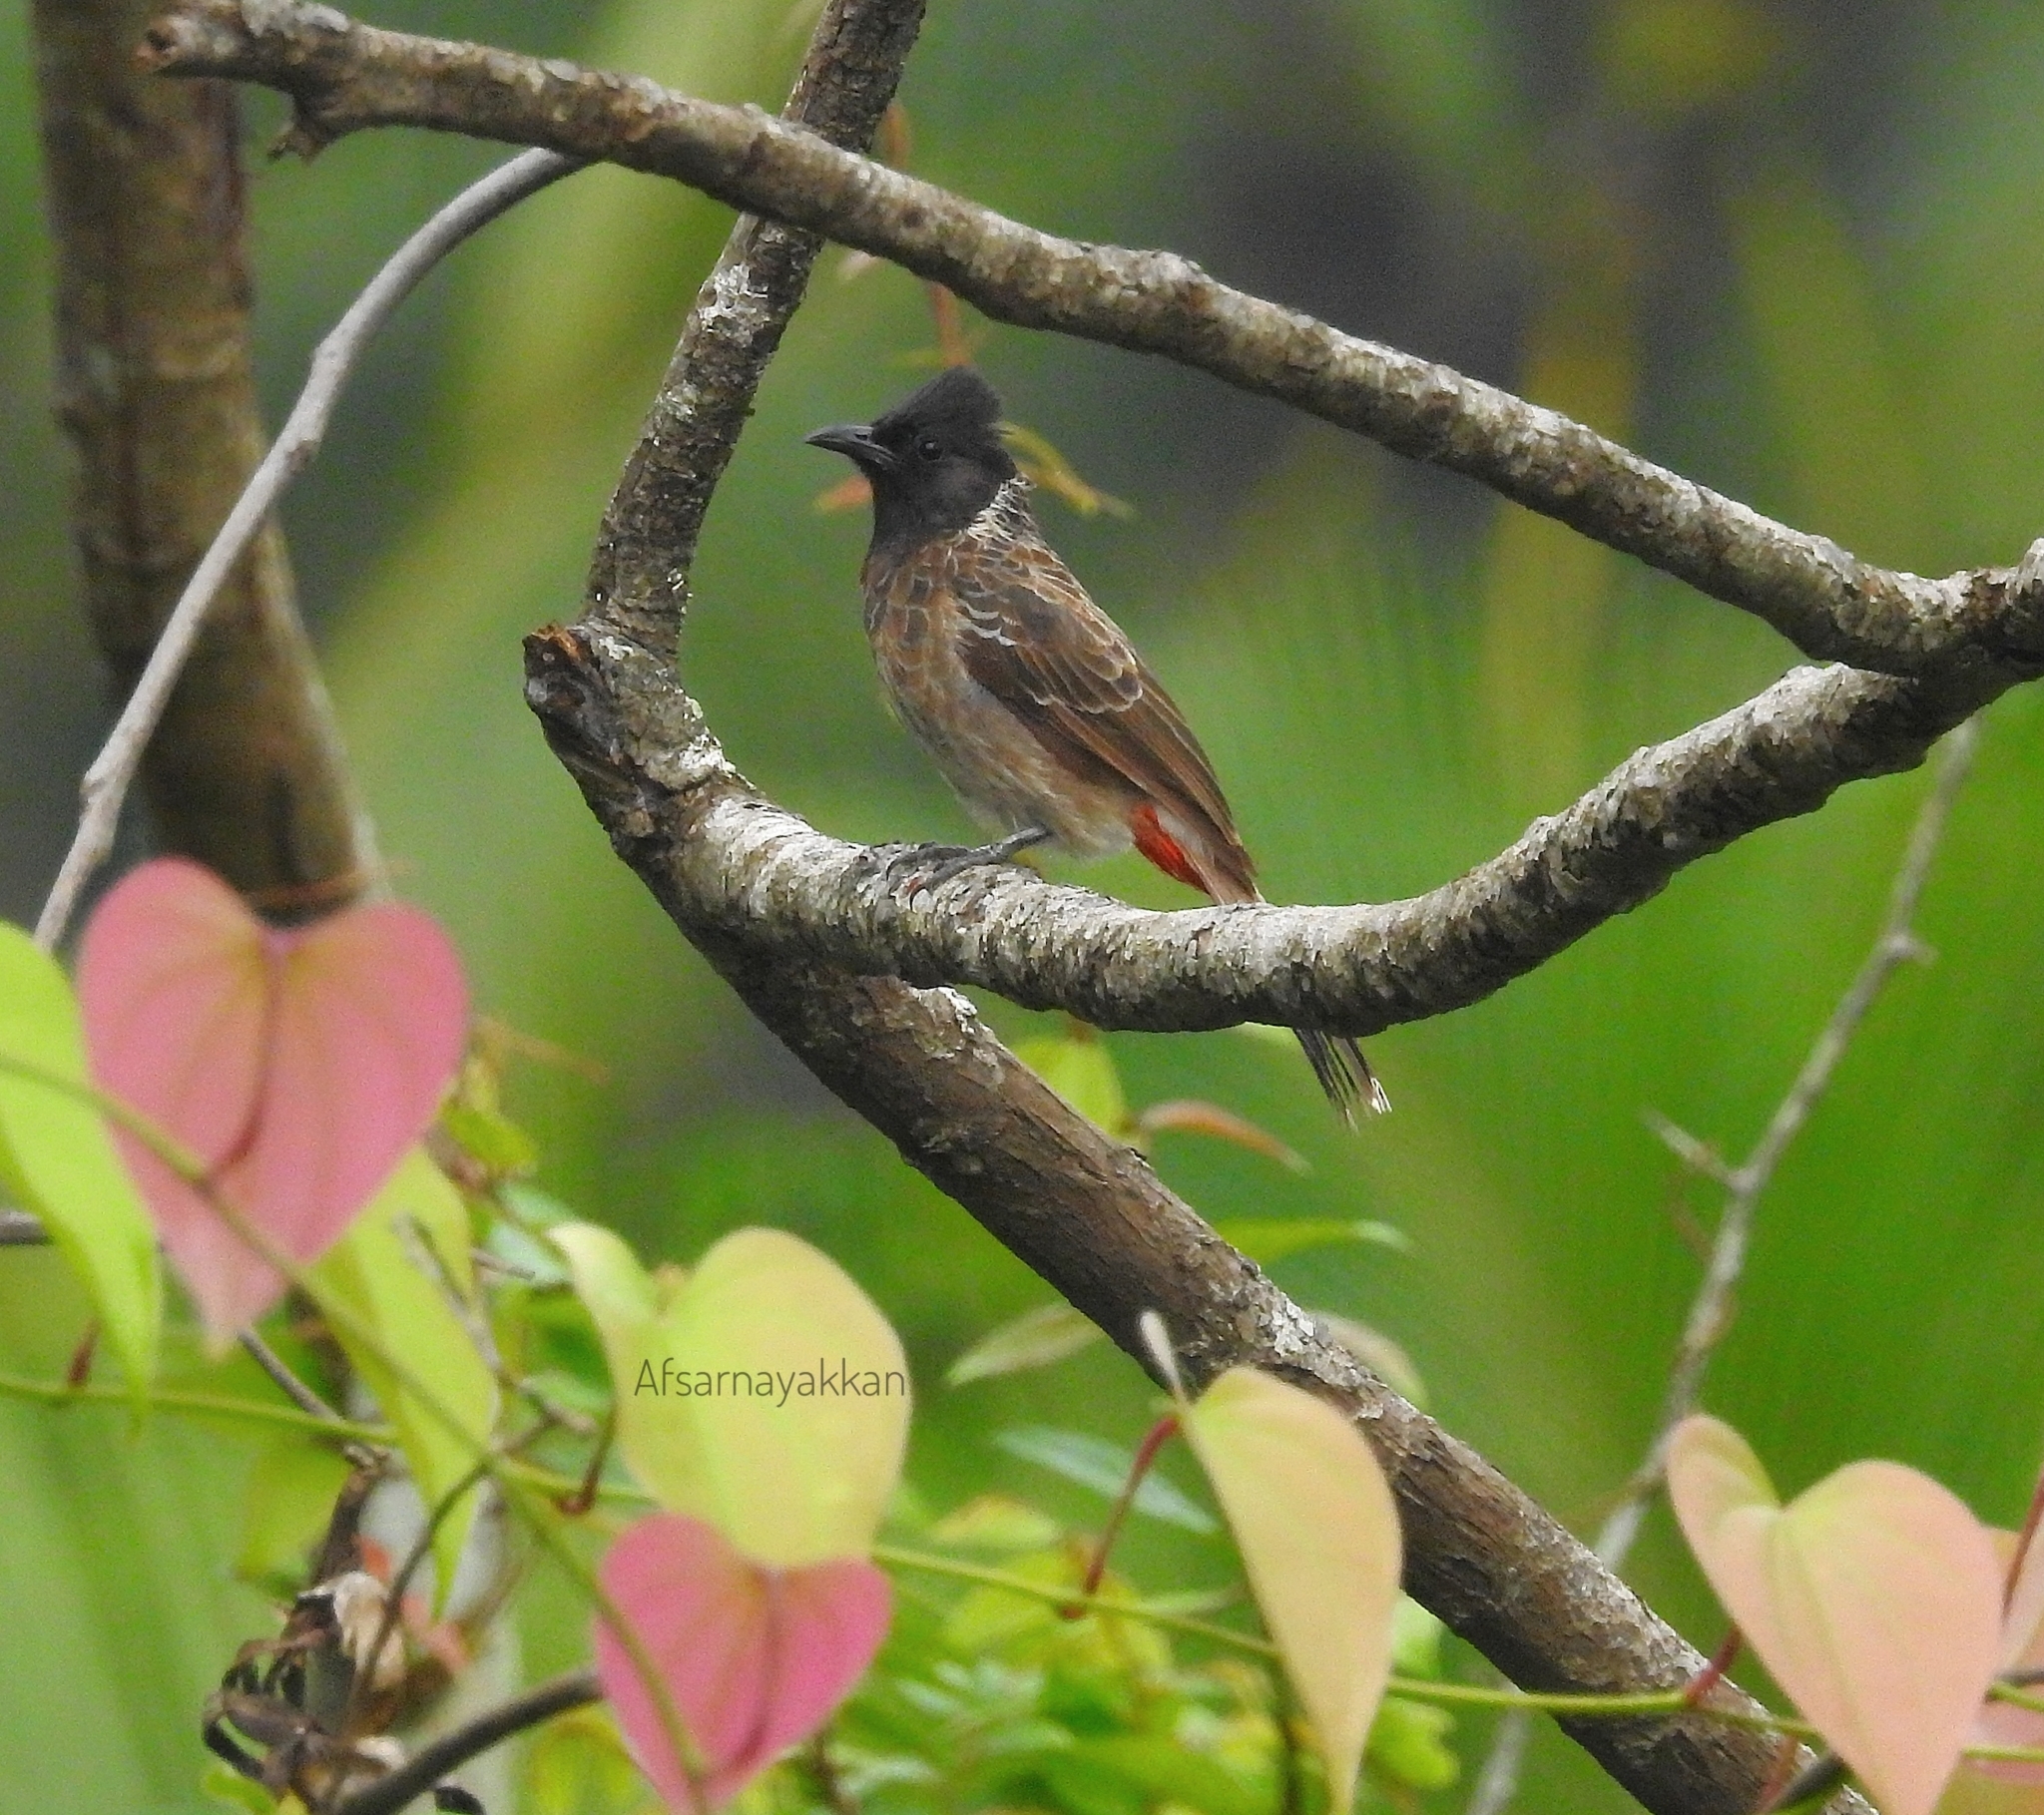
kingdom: Animalia
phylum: Chordata
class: Aves
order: Passeriformes
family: Pycnonotidae
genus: Pycnonotus
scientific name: Pycnonotus cafer
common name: Red-vented bulbul
